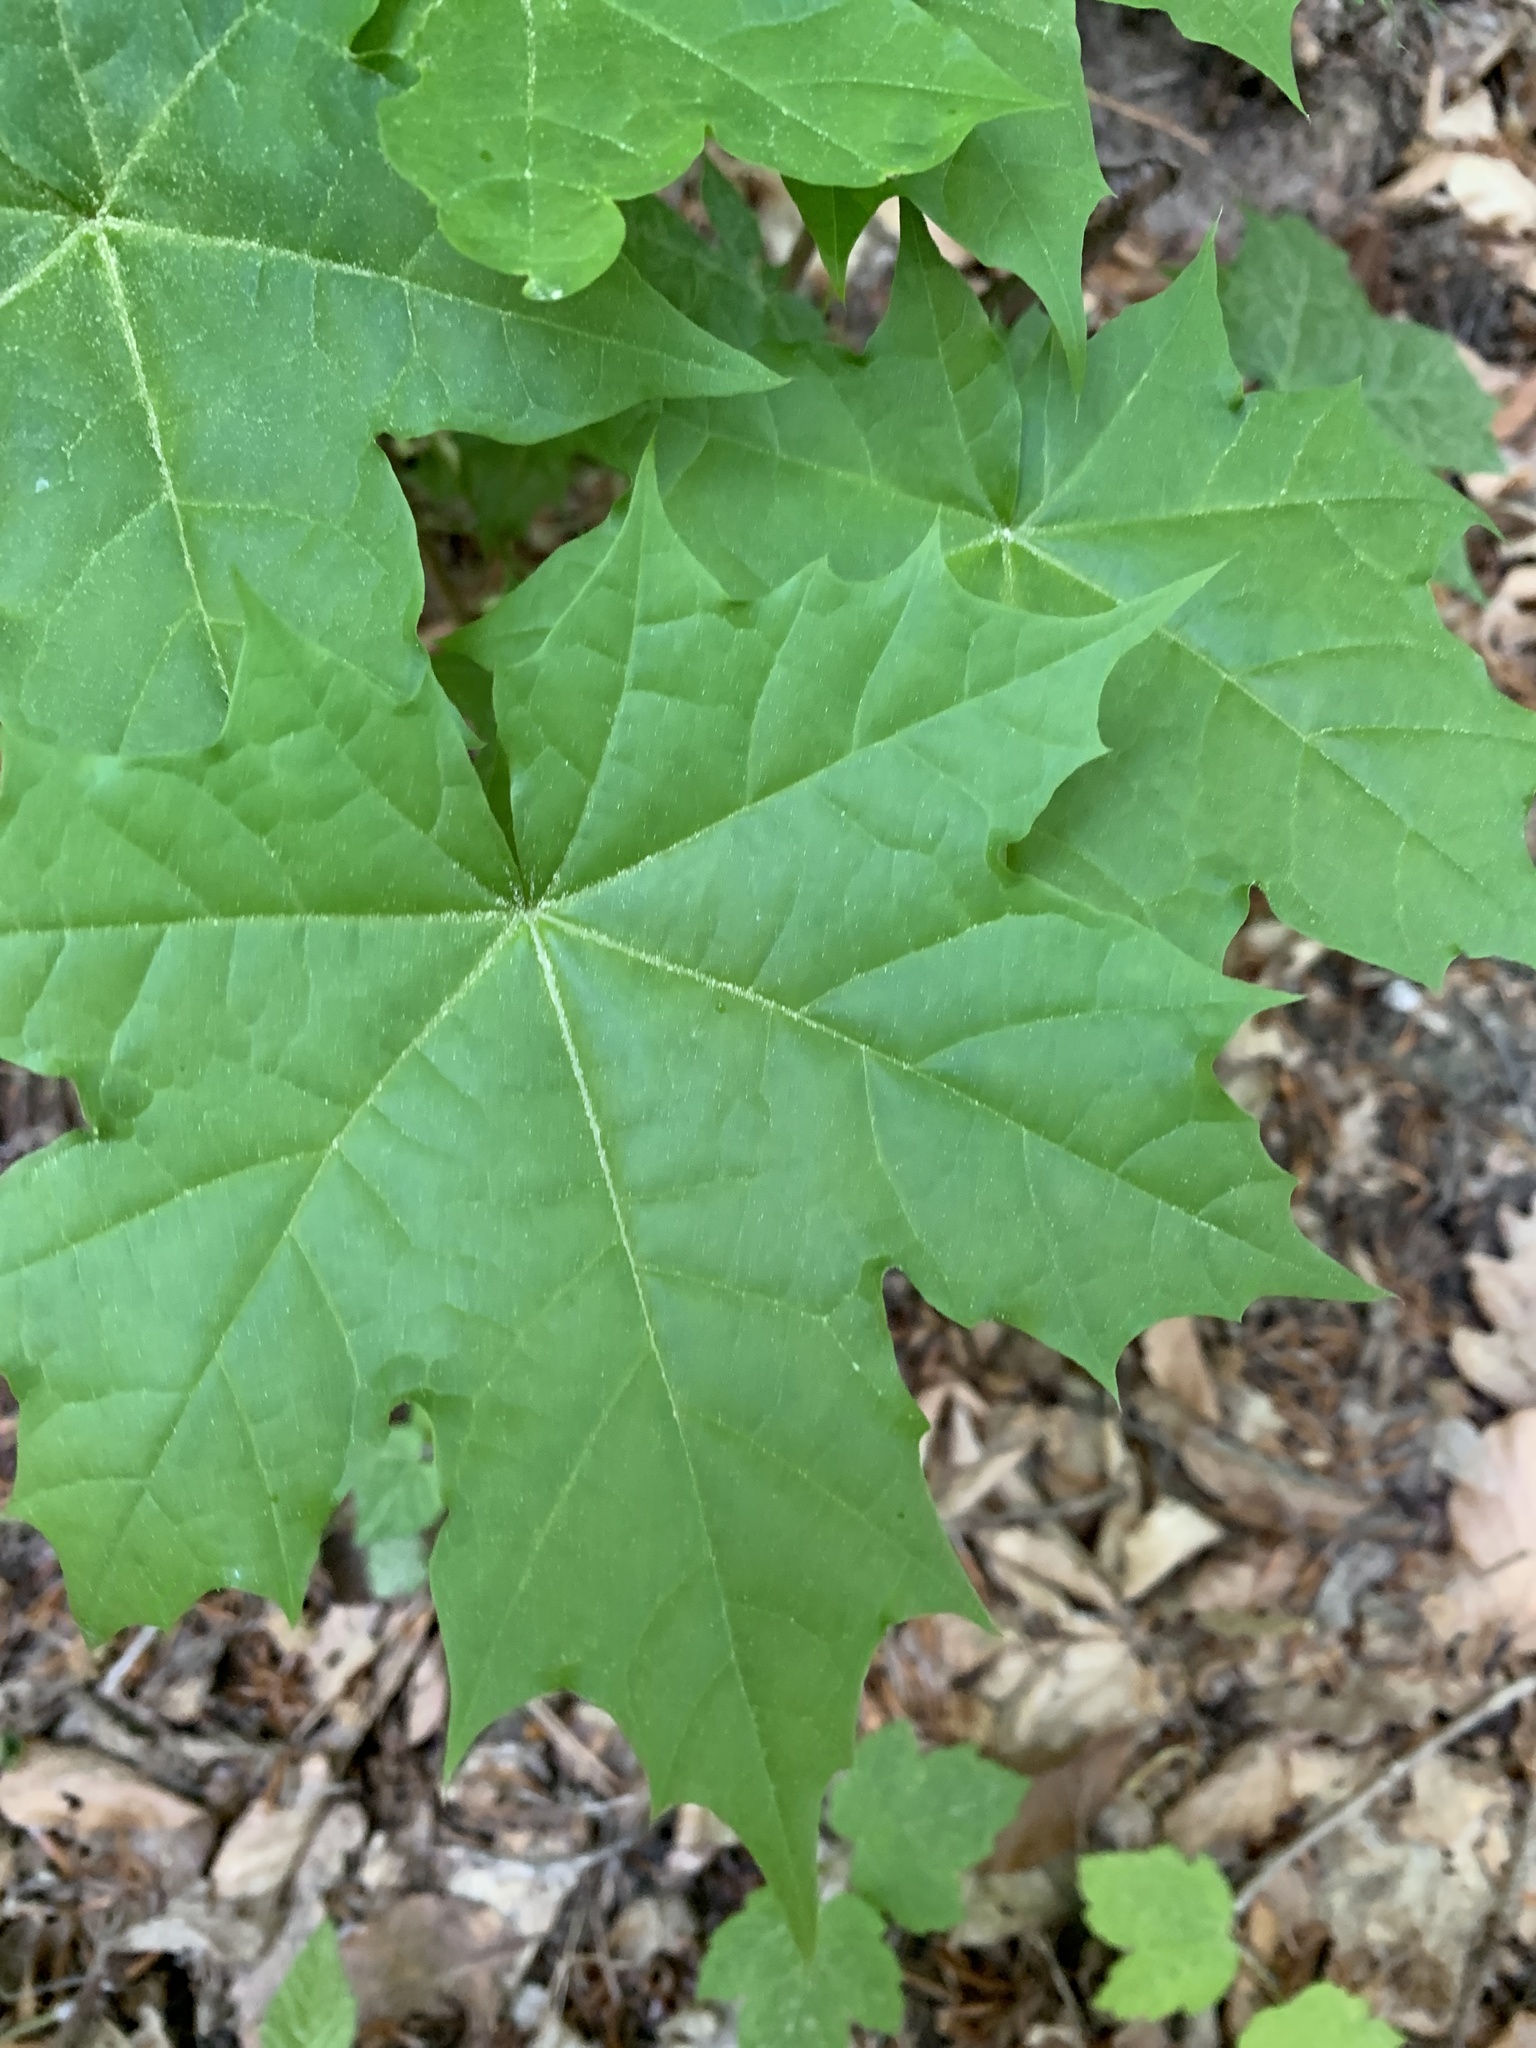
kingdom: Plantae
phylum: Tracheophyta
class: Magnoliopsida
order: Sapindales
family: Sapindaceae
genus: Acer
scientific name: Acer platanoides
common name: Norway maple
